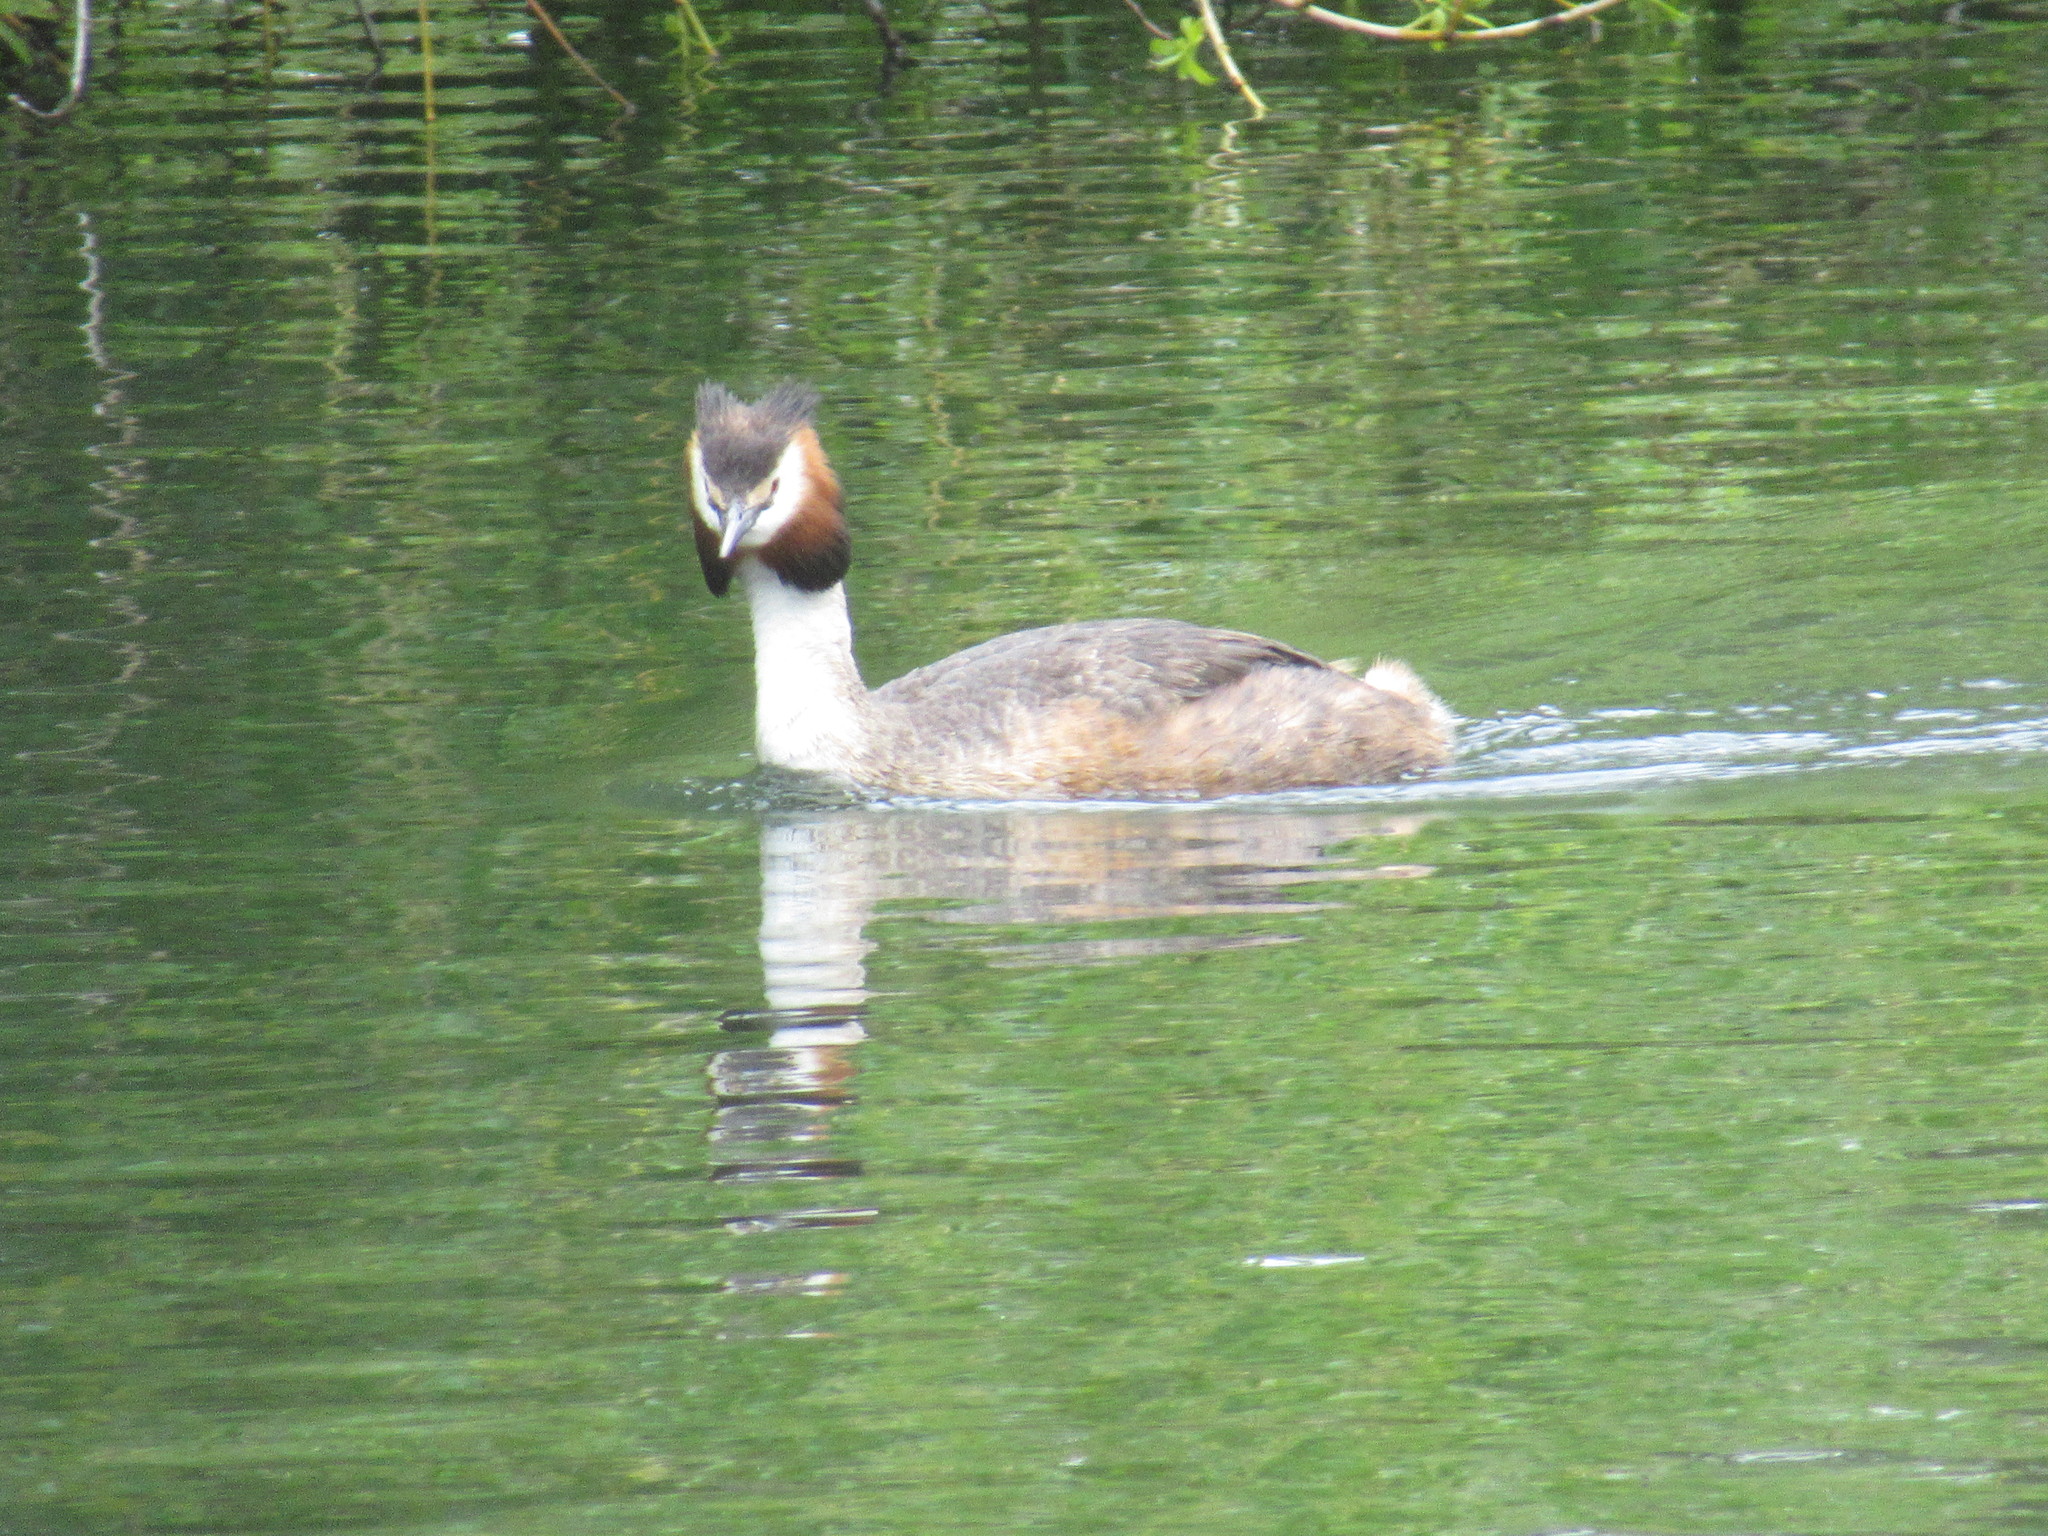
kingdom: Animalia
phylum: Chordata
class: Aves
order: Podicipediformes
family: Podicipedidae
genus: Podiceps
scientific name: Podiceps cristatus
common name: Great crested grebe
